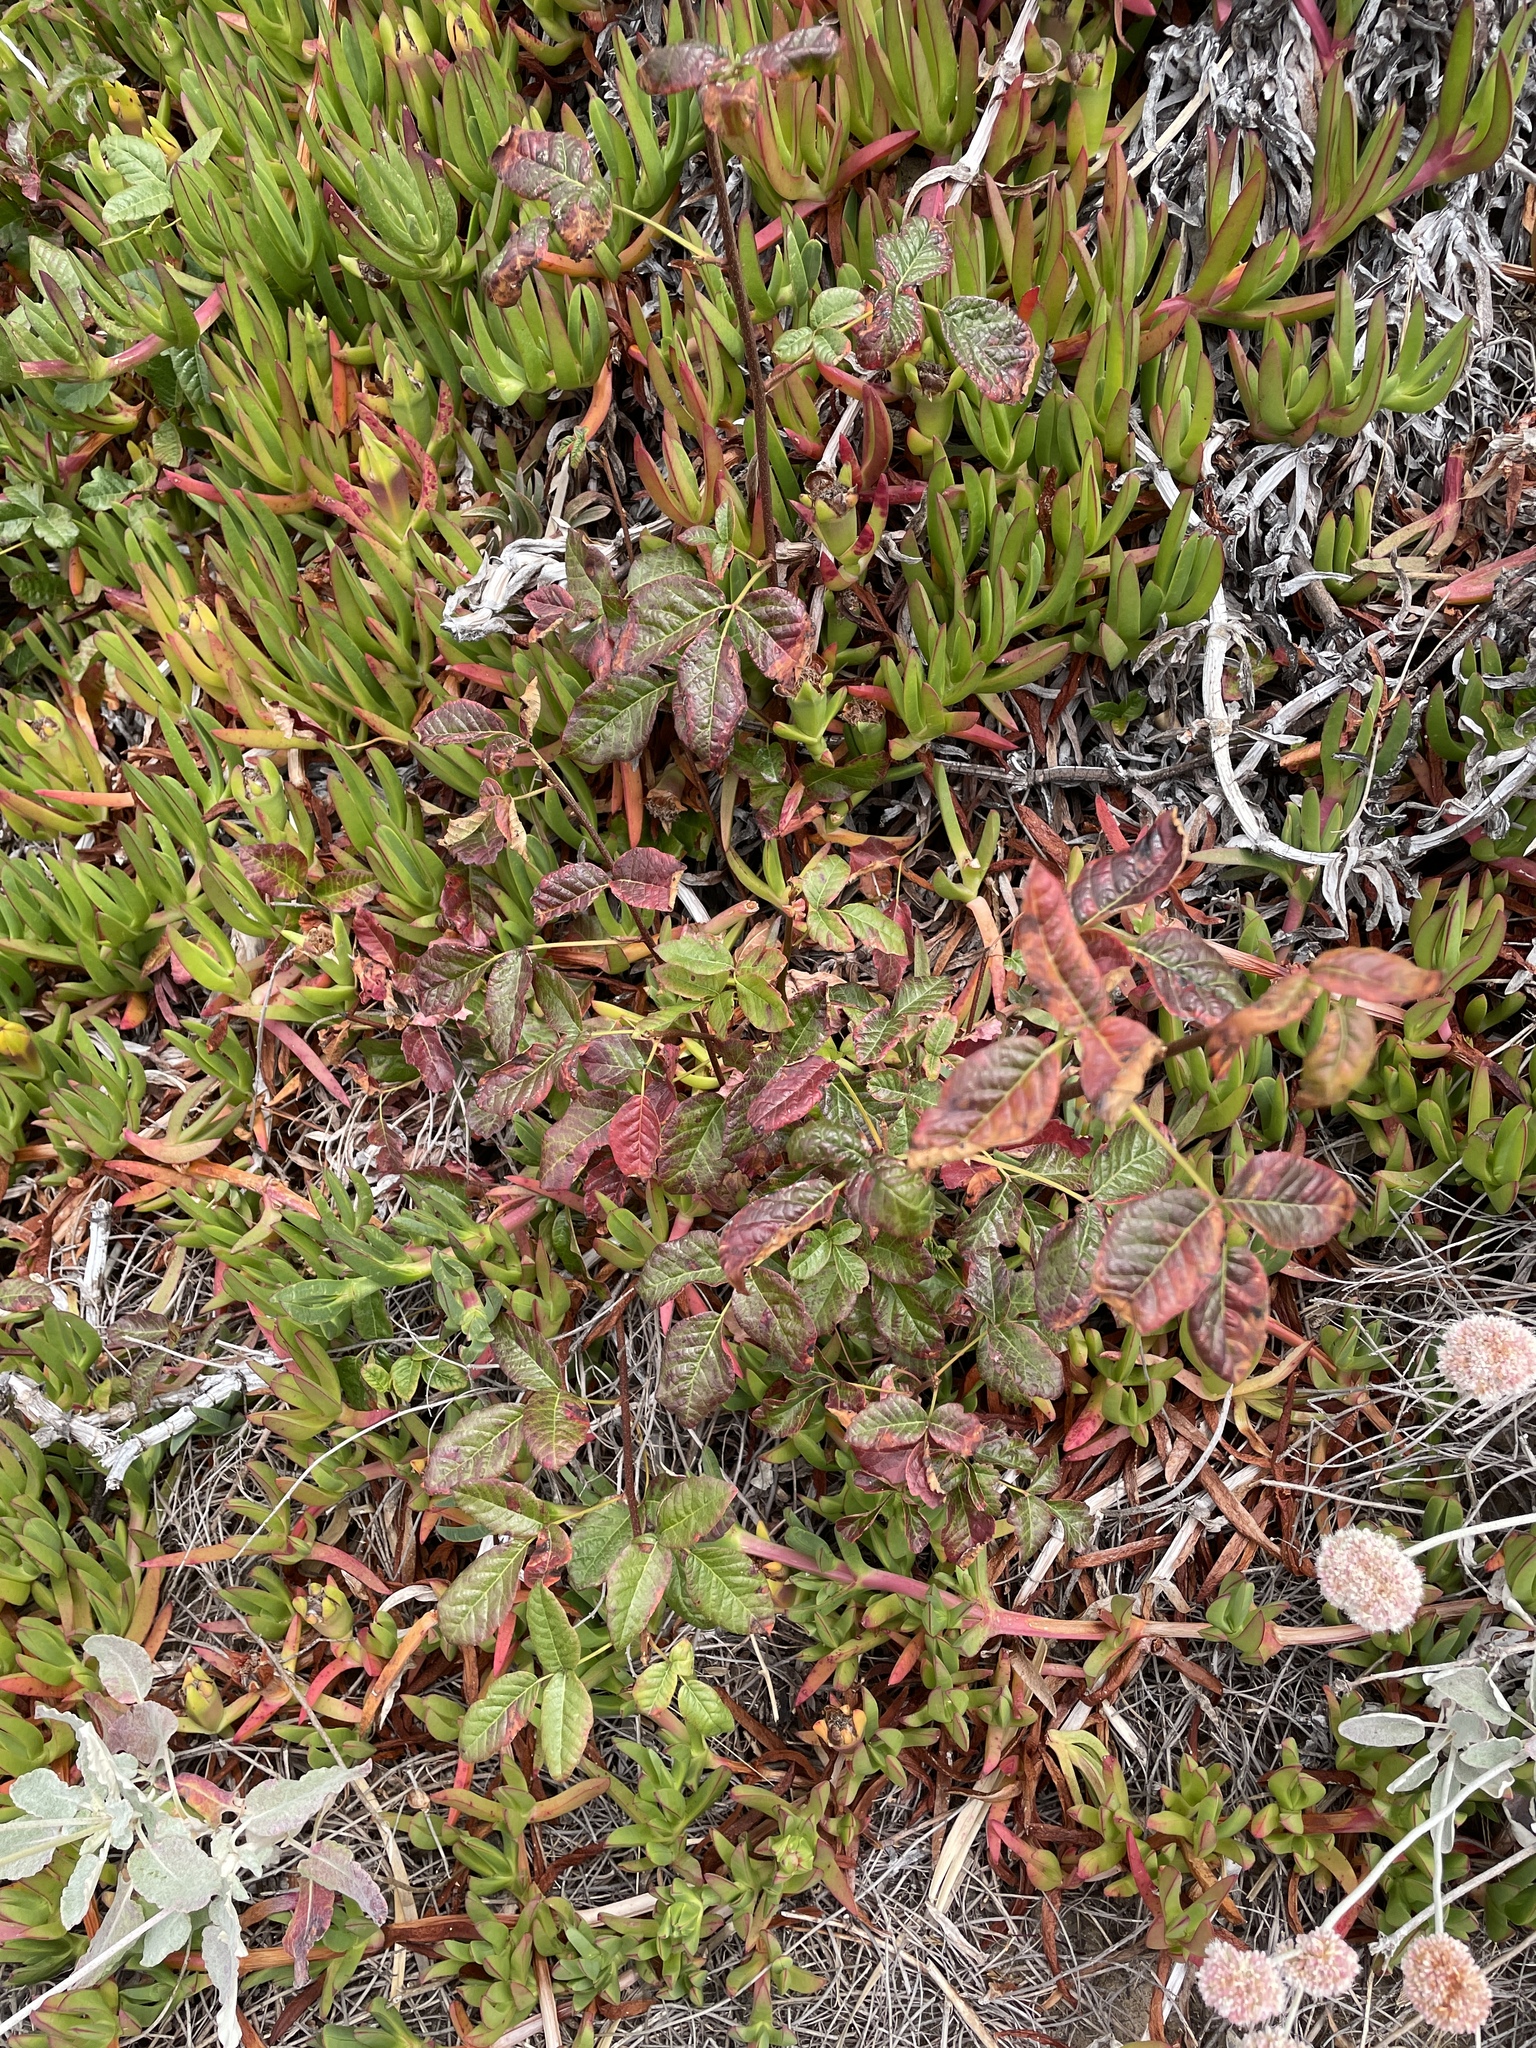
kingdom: Plantae
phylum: Tracheophyta
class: Magnoliopsida
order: Sapindales
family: Anacardiaceae
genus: Toxicodendron
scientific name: Toxicodendron diversilobum
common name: Pacific poison-oak
